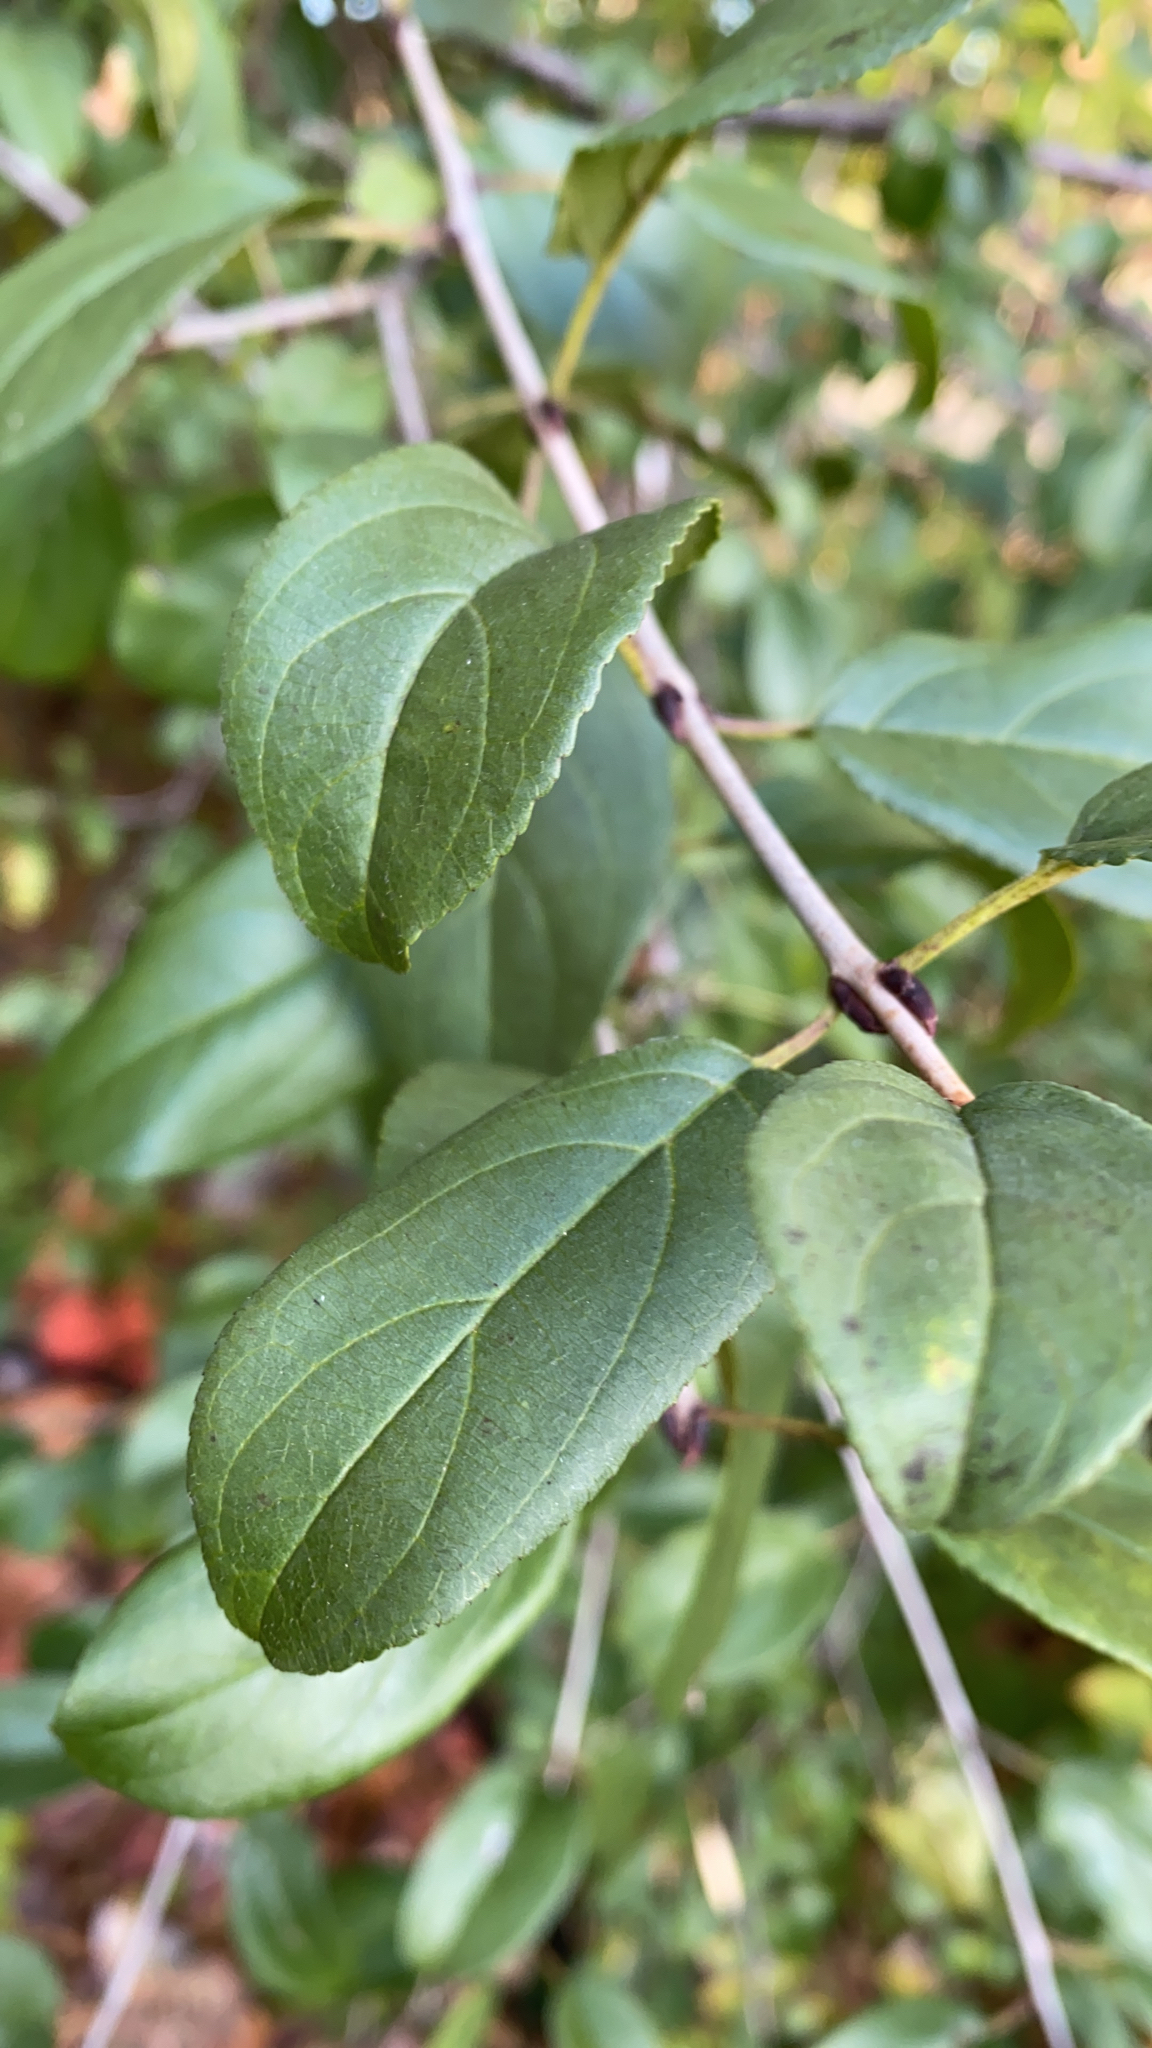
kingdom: Plantae
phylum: Tracheophyta
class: Magnoliopsida
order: Rosales
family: Rhamnaceae
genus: Rhamnus
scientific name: Rhamnus cathartica
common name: Common buckthorn
